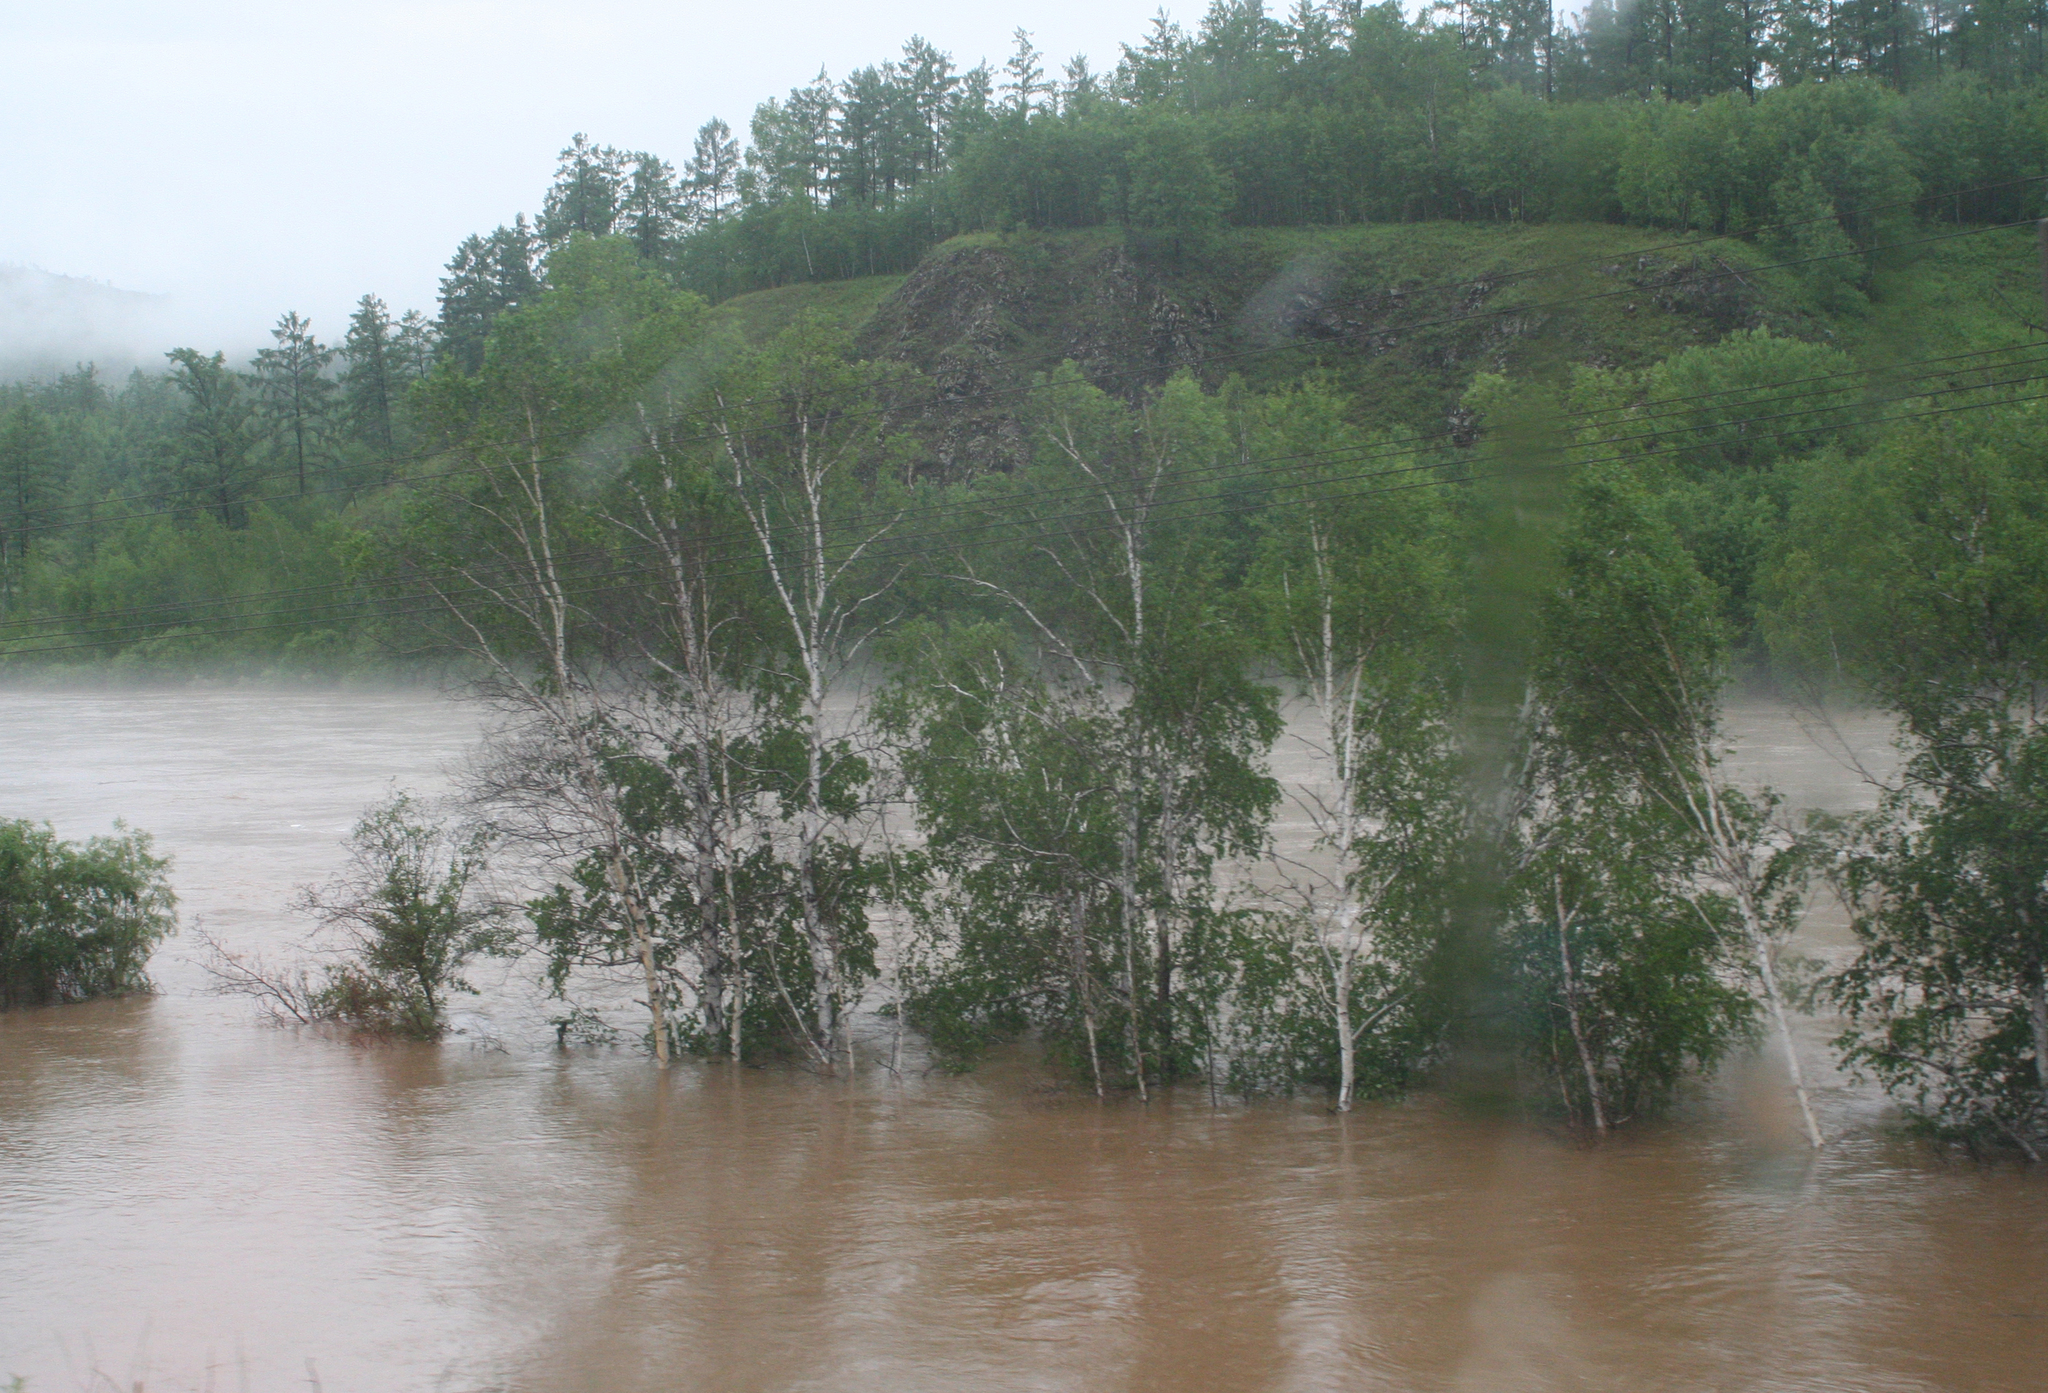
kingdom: Plantae
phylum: Tracheophyta
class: Magnoliopsida
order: Fagales
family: Betulaceae
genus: Betula
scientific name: Betula pendula
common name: Silver birch
